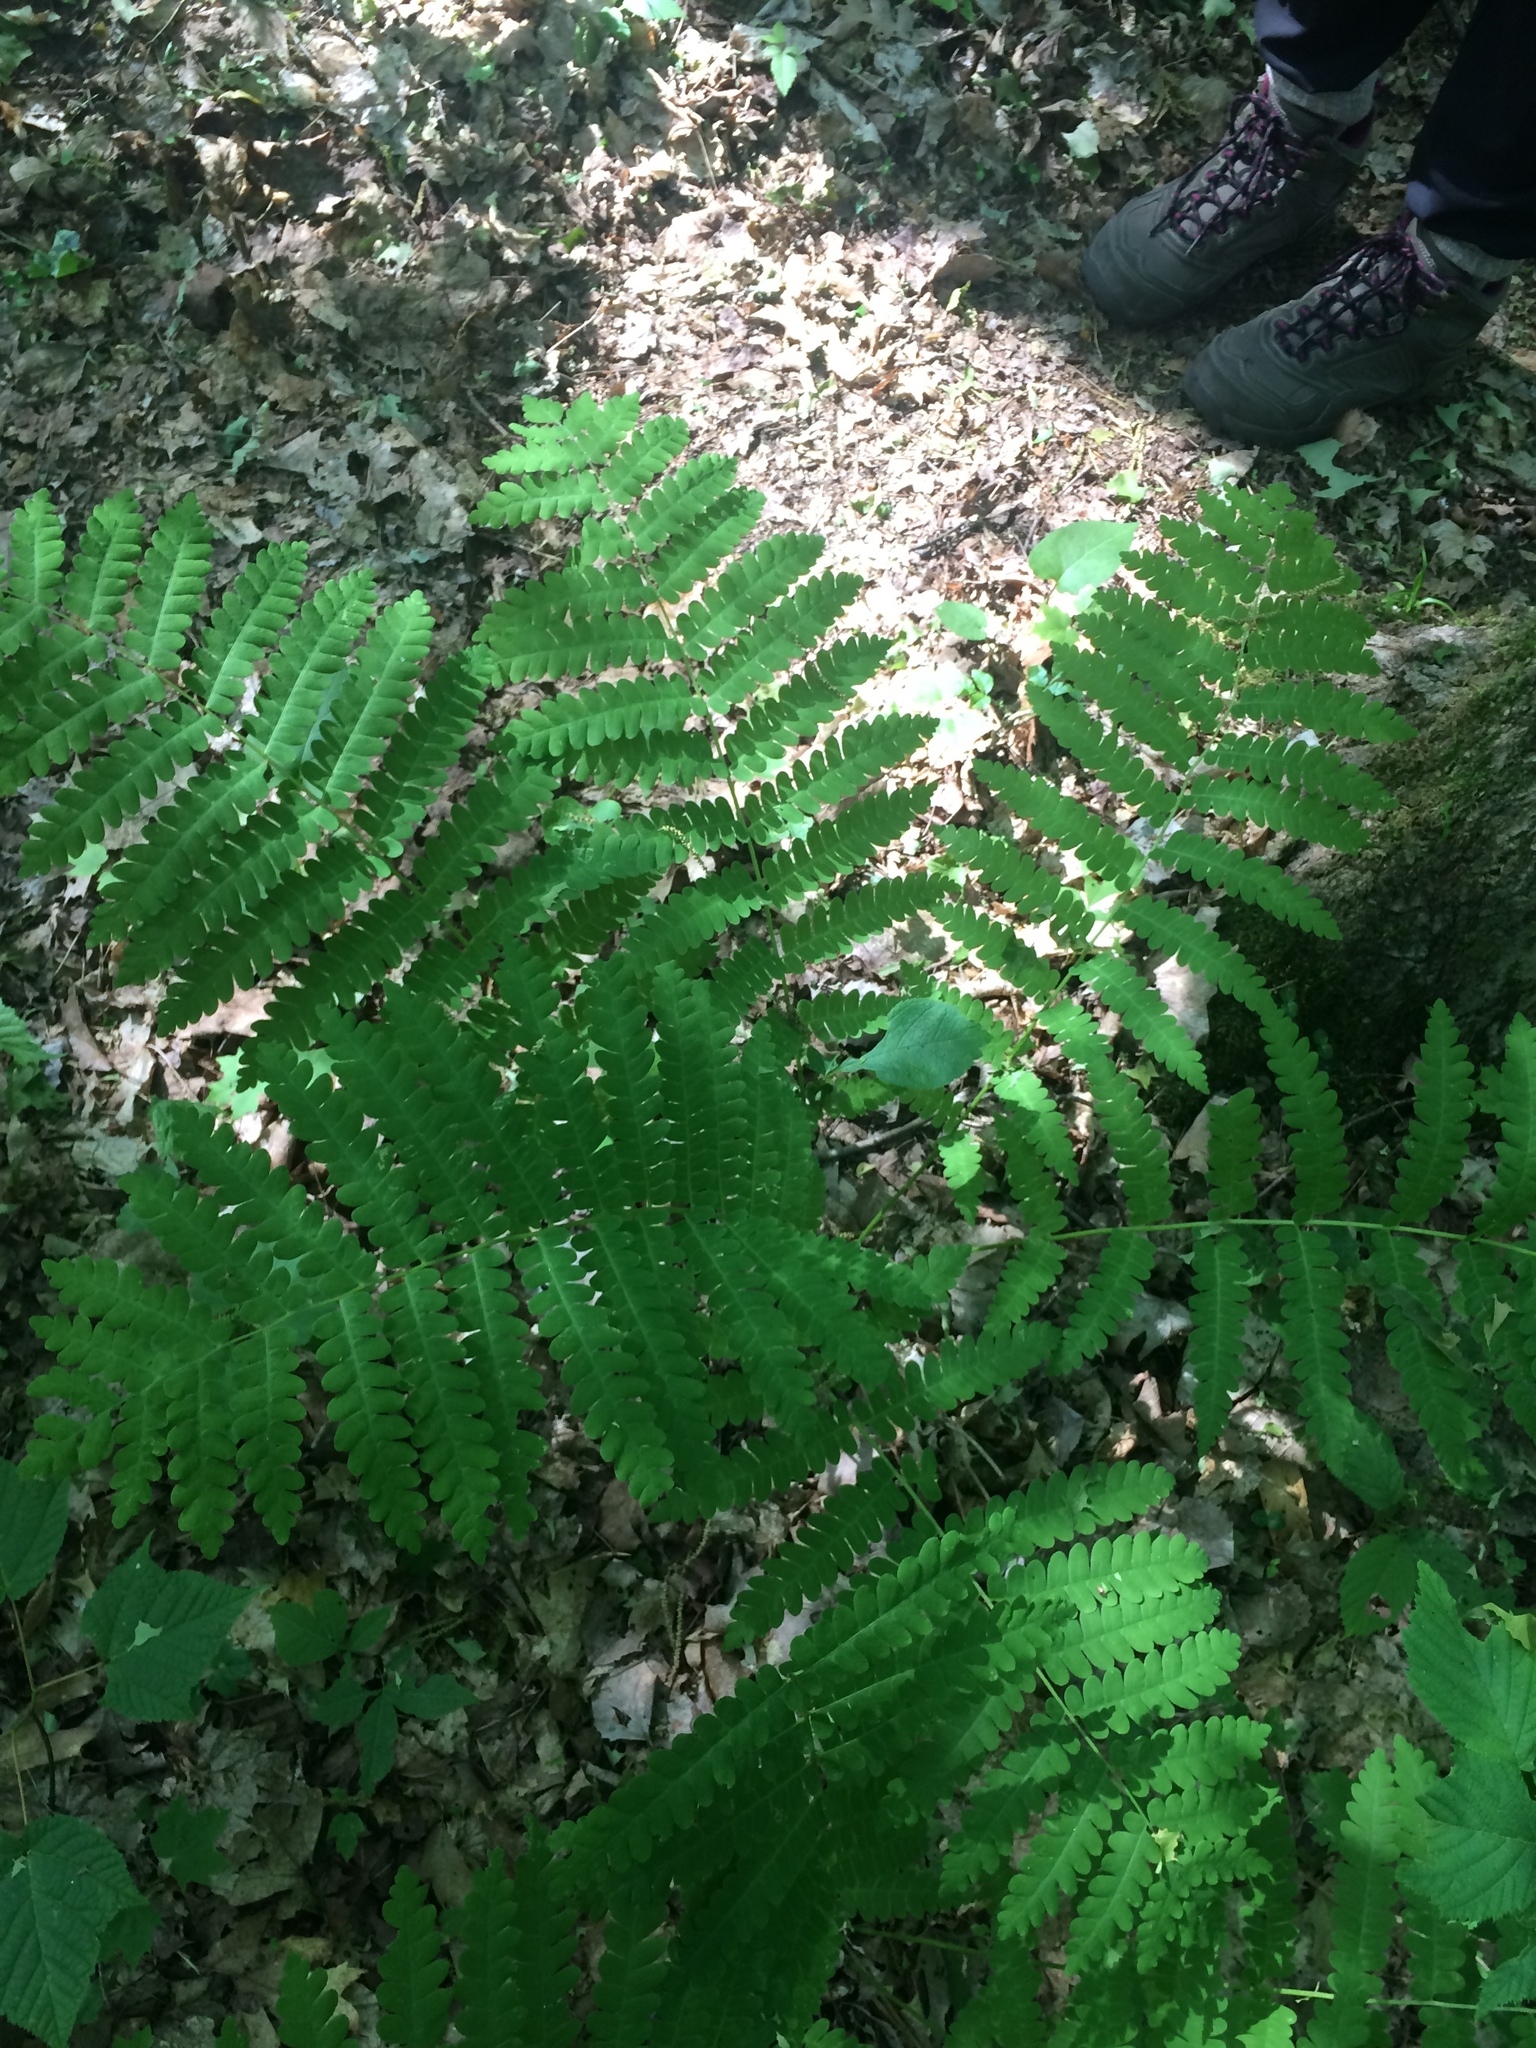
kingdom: Plantae
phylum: Tracheophyta
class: Polypodiopsida
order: Osmundales
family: Osmundaceae
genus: Claytosmunda
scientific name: Claytosmunda claytoniana
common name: Clayton's fern
